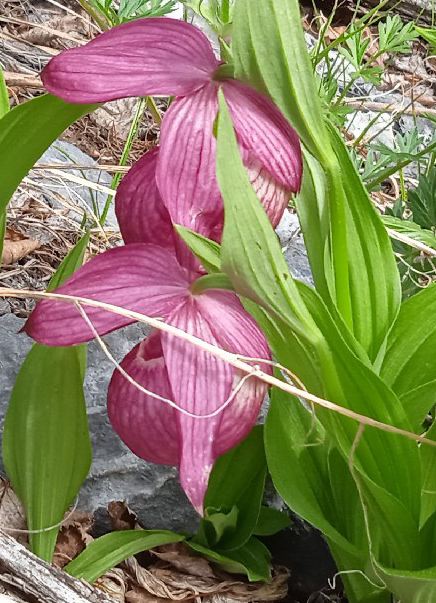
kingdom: Plantae
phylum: Tracheophyta
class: Liliopsida
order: Asparagales
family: Orchidaceae
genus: Cypripedium
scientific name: Cypripedium macranthos
